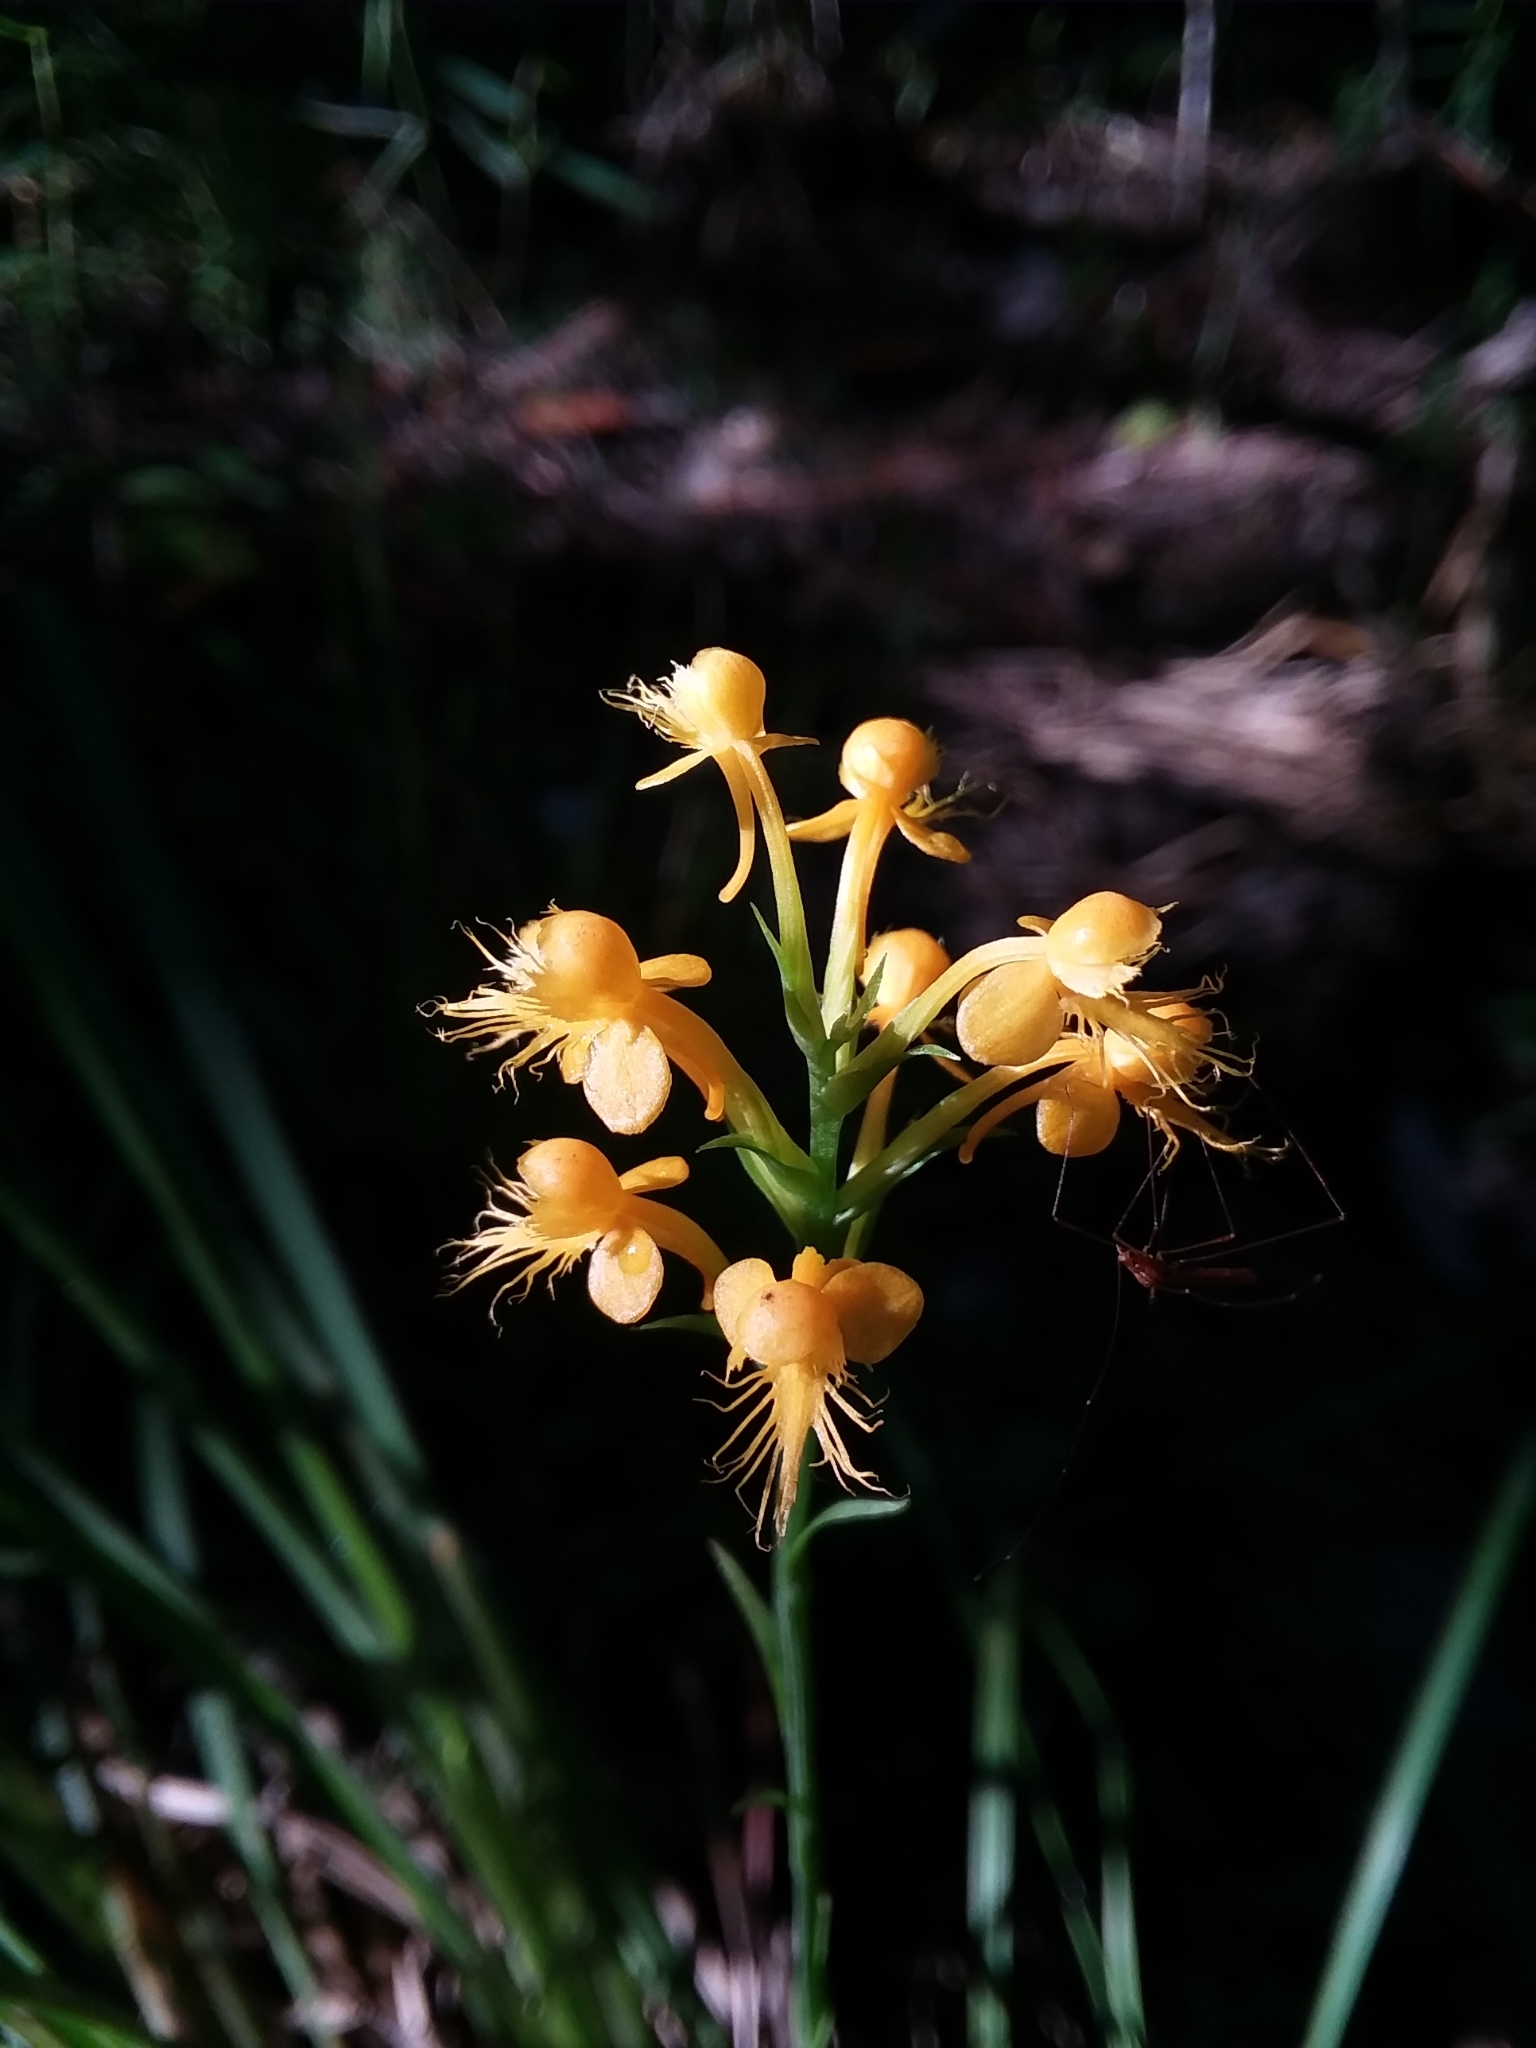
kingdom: Plantae
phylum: Tracheophyta
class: Liliopsida
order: Asparagales
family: Orchidaceae
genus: Platanthera
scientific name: Platanthera cristata
